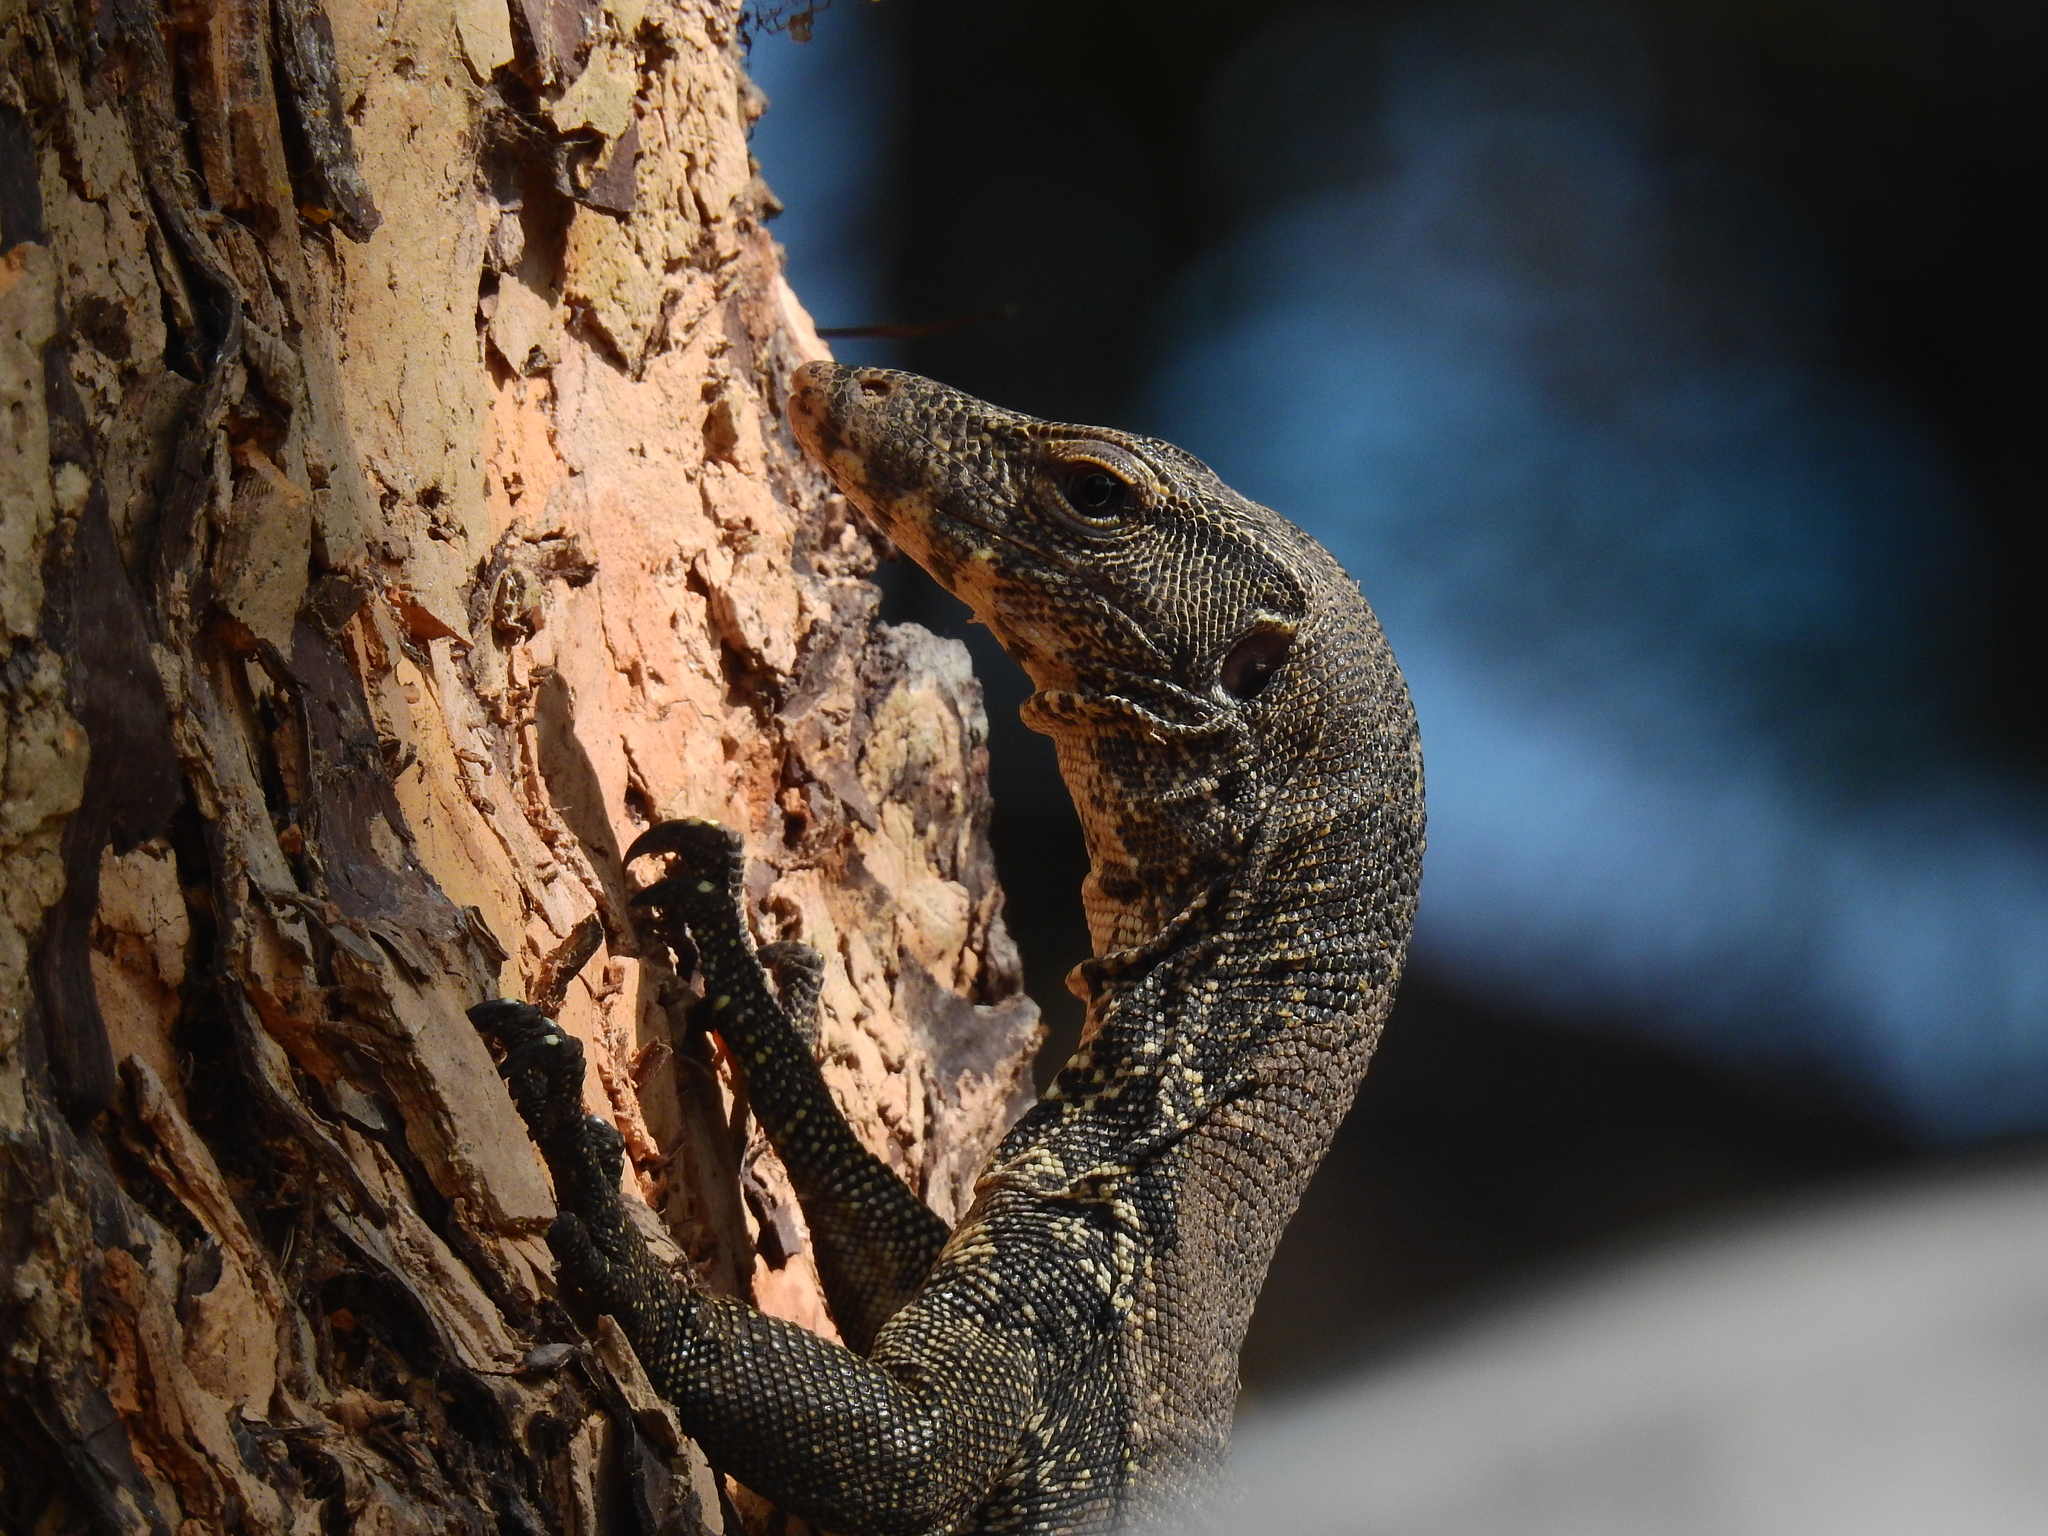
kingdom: Animalia
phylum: Chordata
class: Squamata
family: Varanidae
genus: Varanus
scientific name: Varanus salvator
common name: Common water monitor
